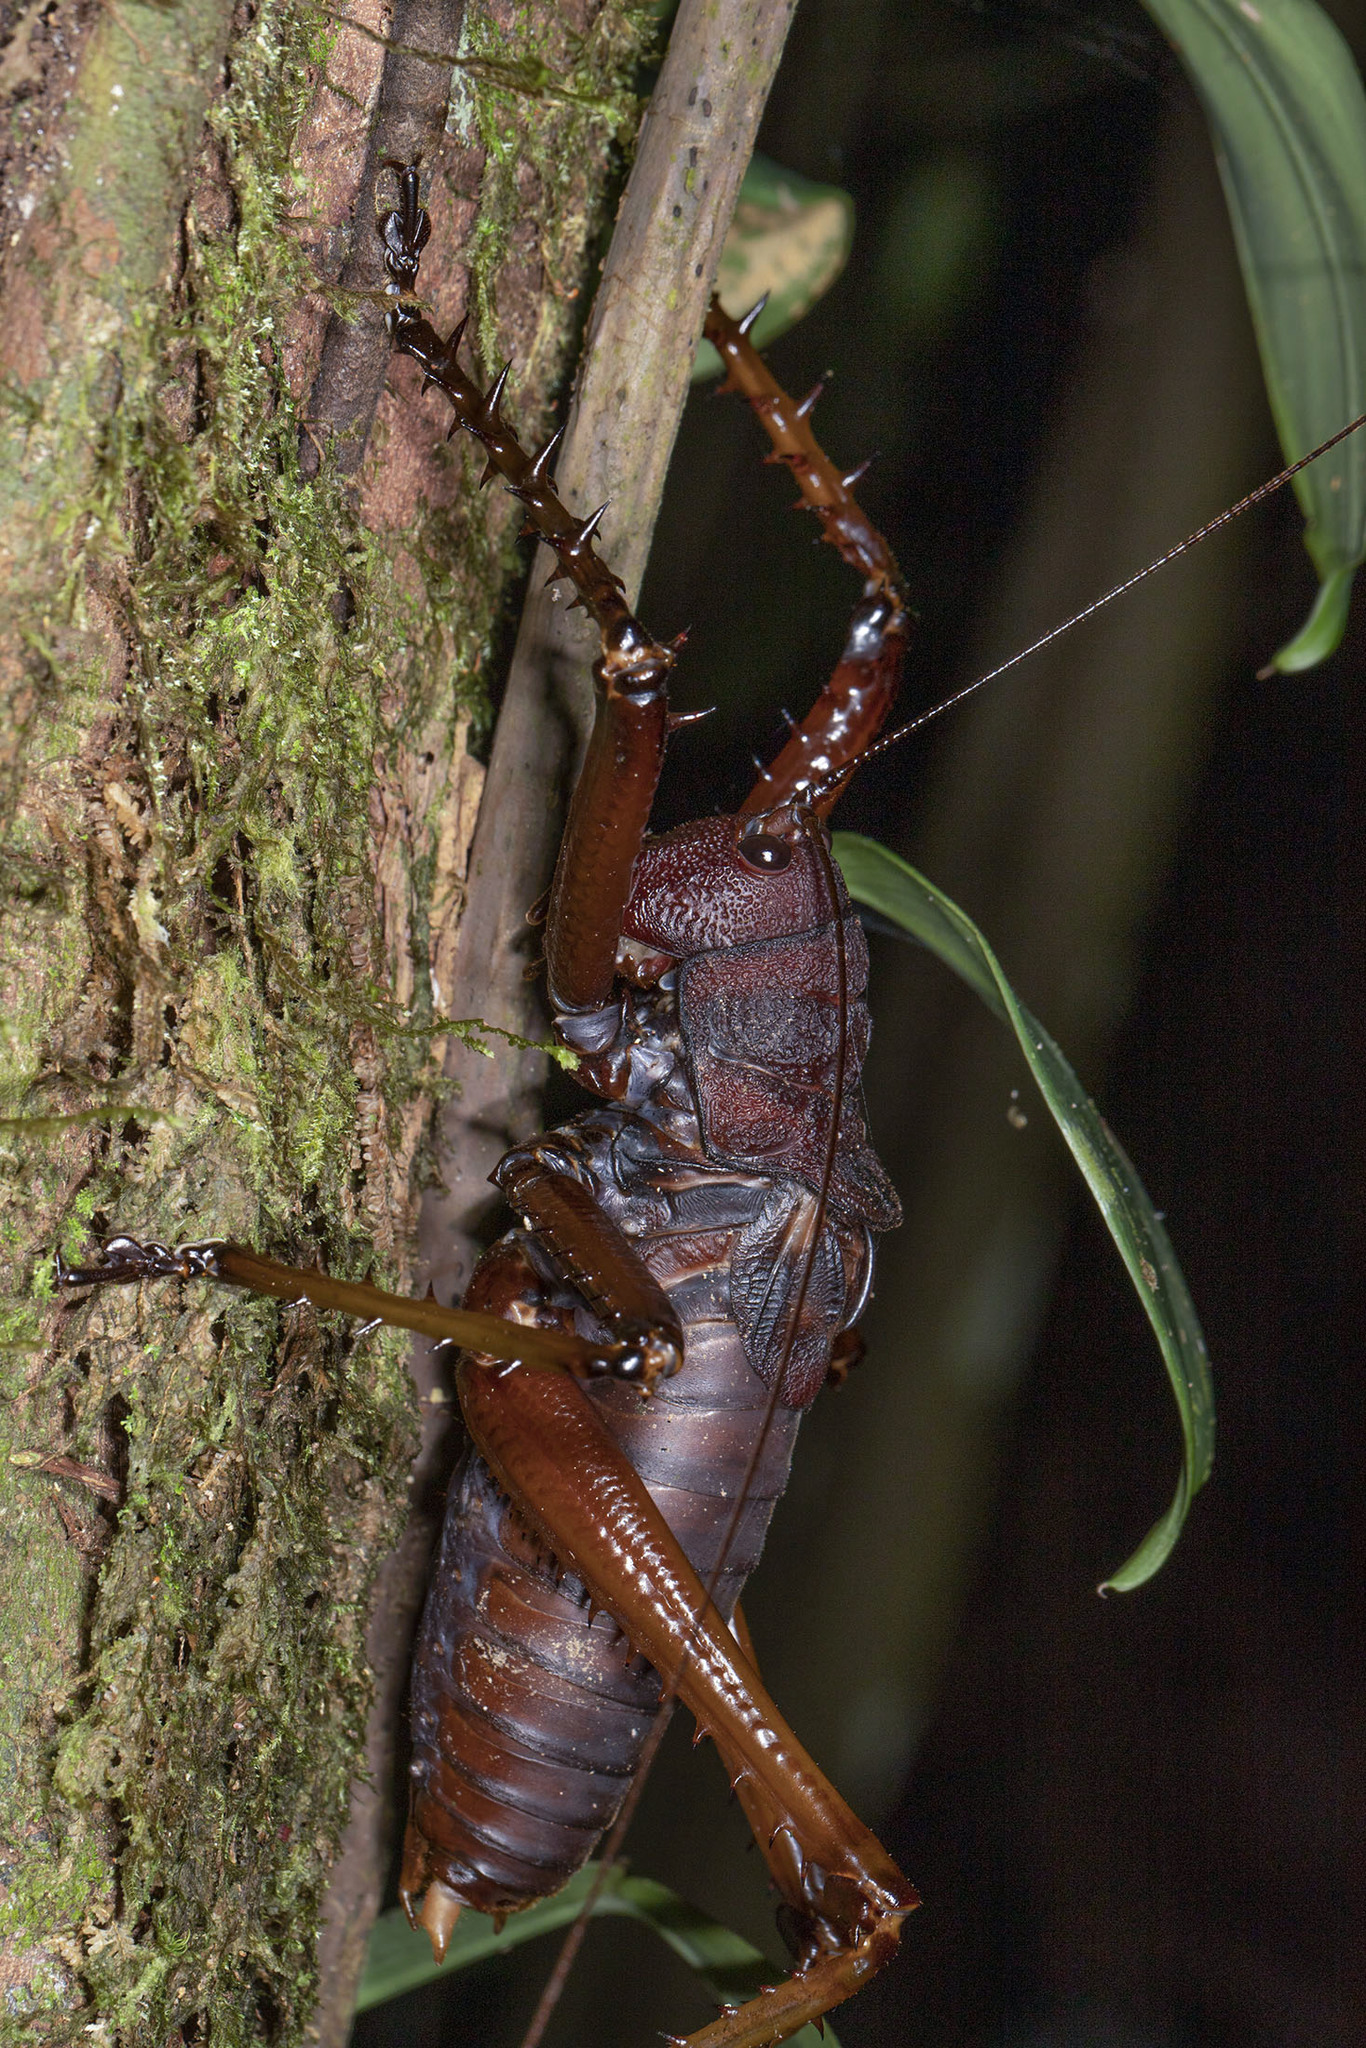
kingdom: Animalia
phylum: Arthropoda
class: Insecta
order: Orthoptera
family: Tettigoniidae
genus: Panoploscelis
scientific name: Panoploscelis specularis
